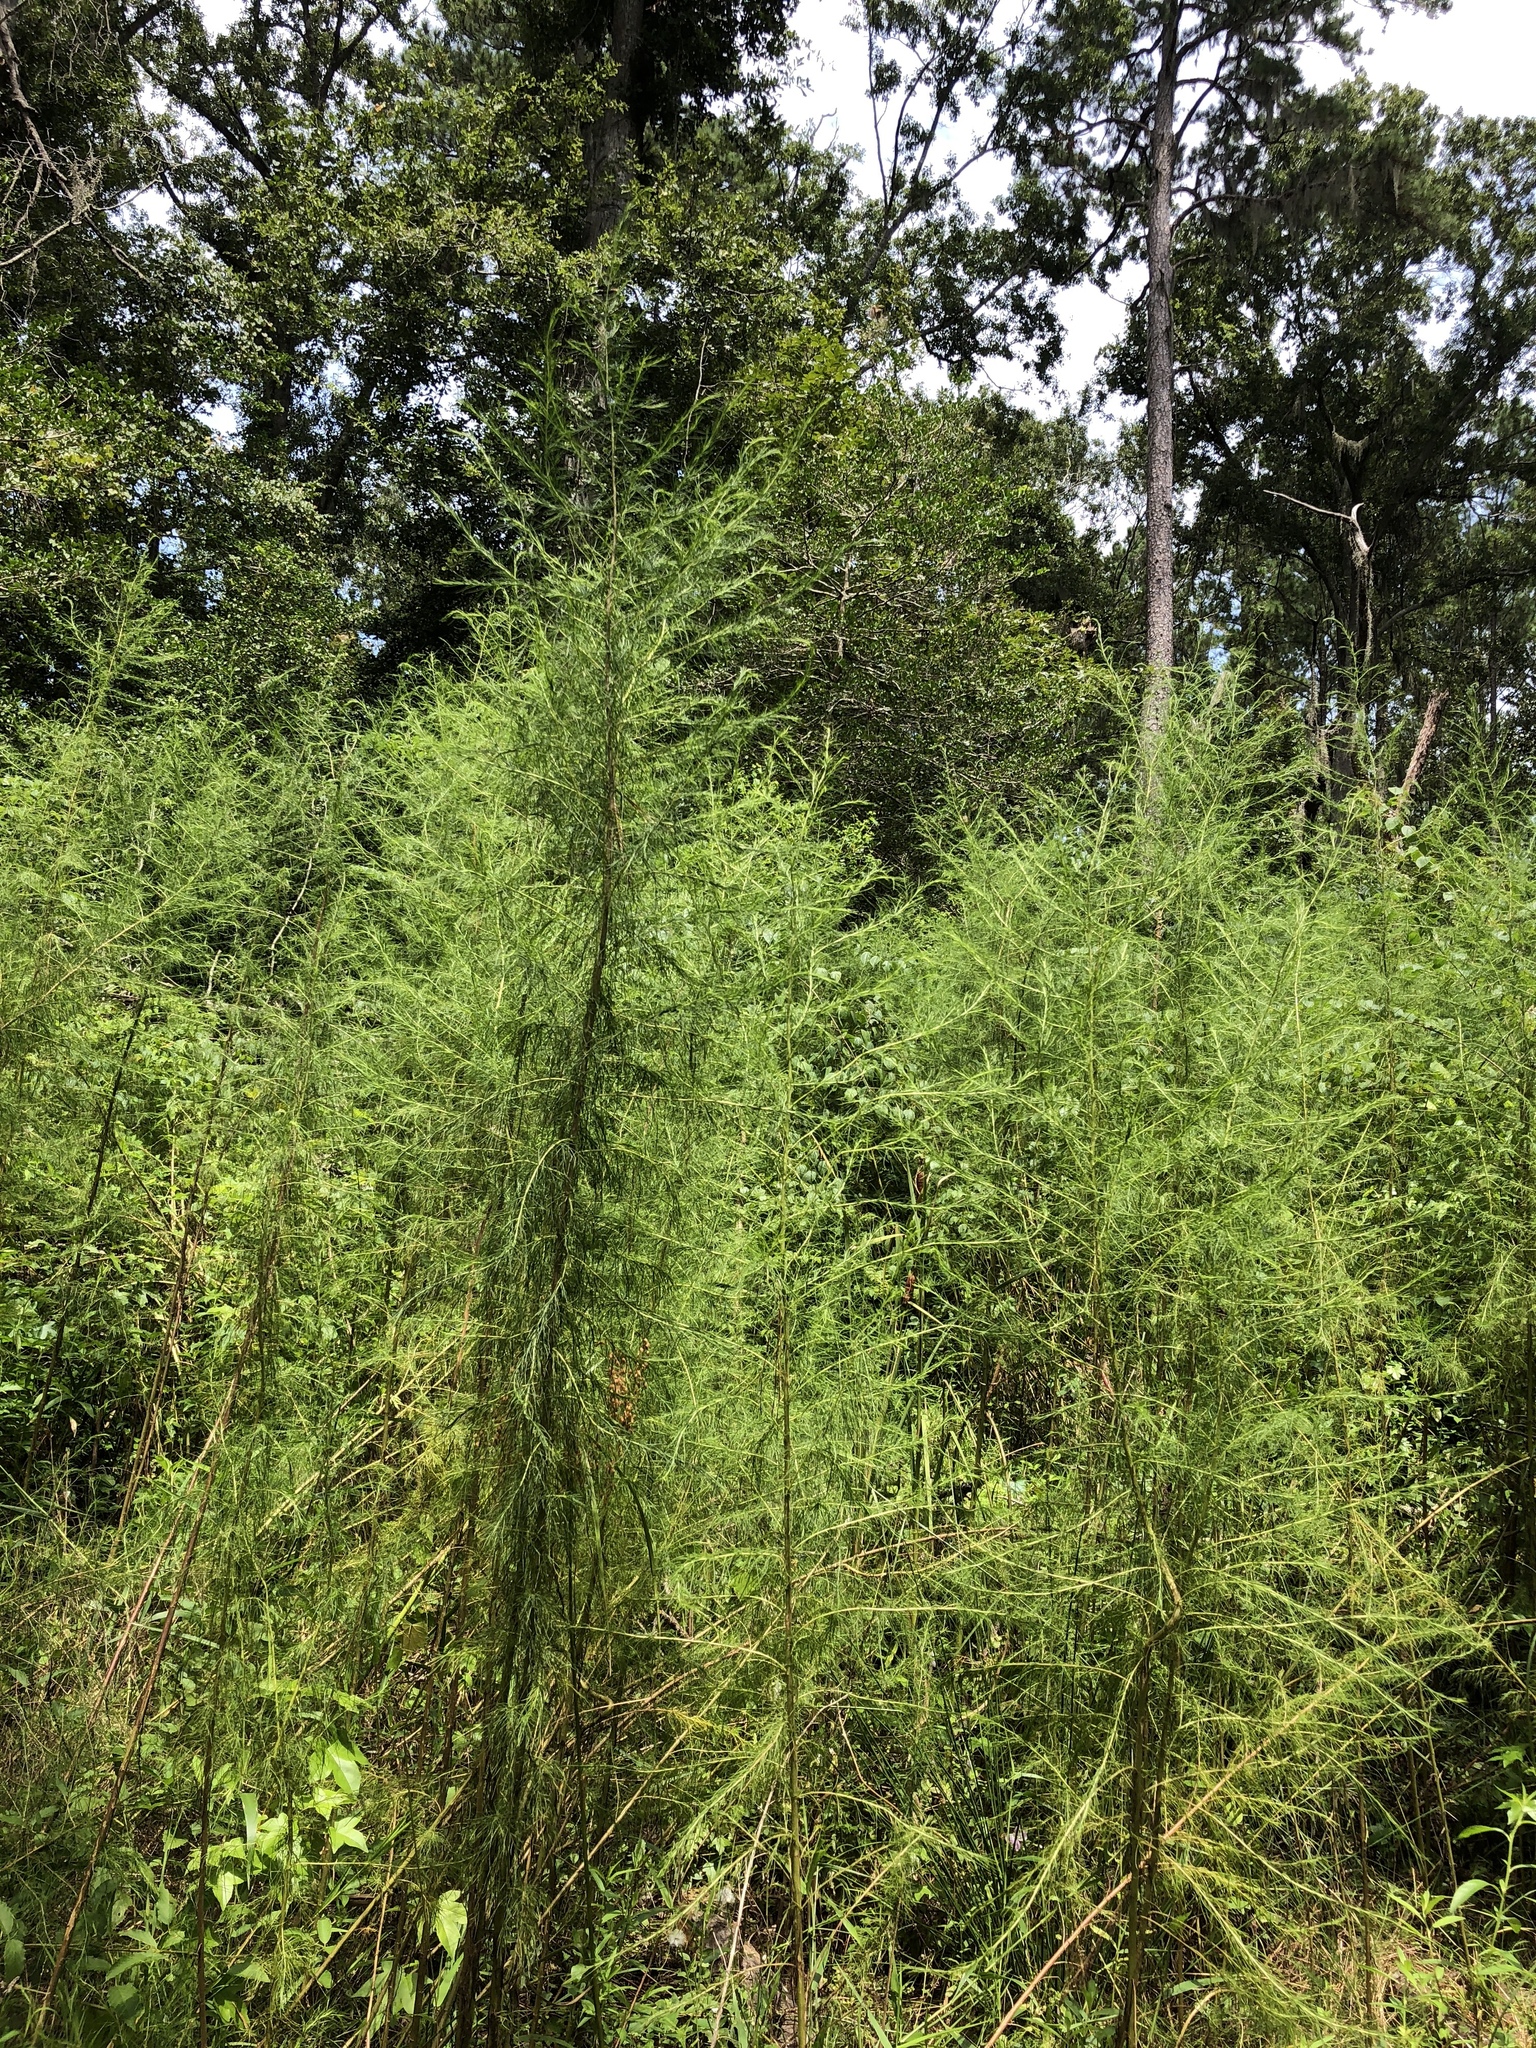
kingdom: Plantae
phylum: Tracheophyta
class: Magnoliopsida
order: Asterales
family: Asteraceae
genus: Eupatorium
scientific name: Eupatorium capillifolium
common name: Dog-fennel
